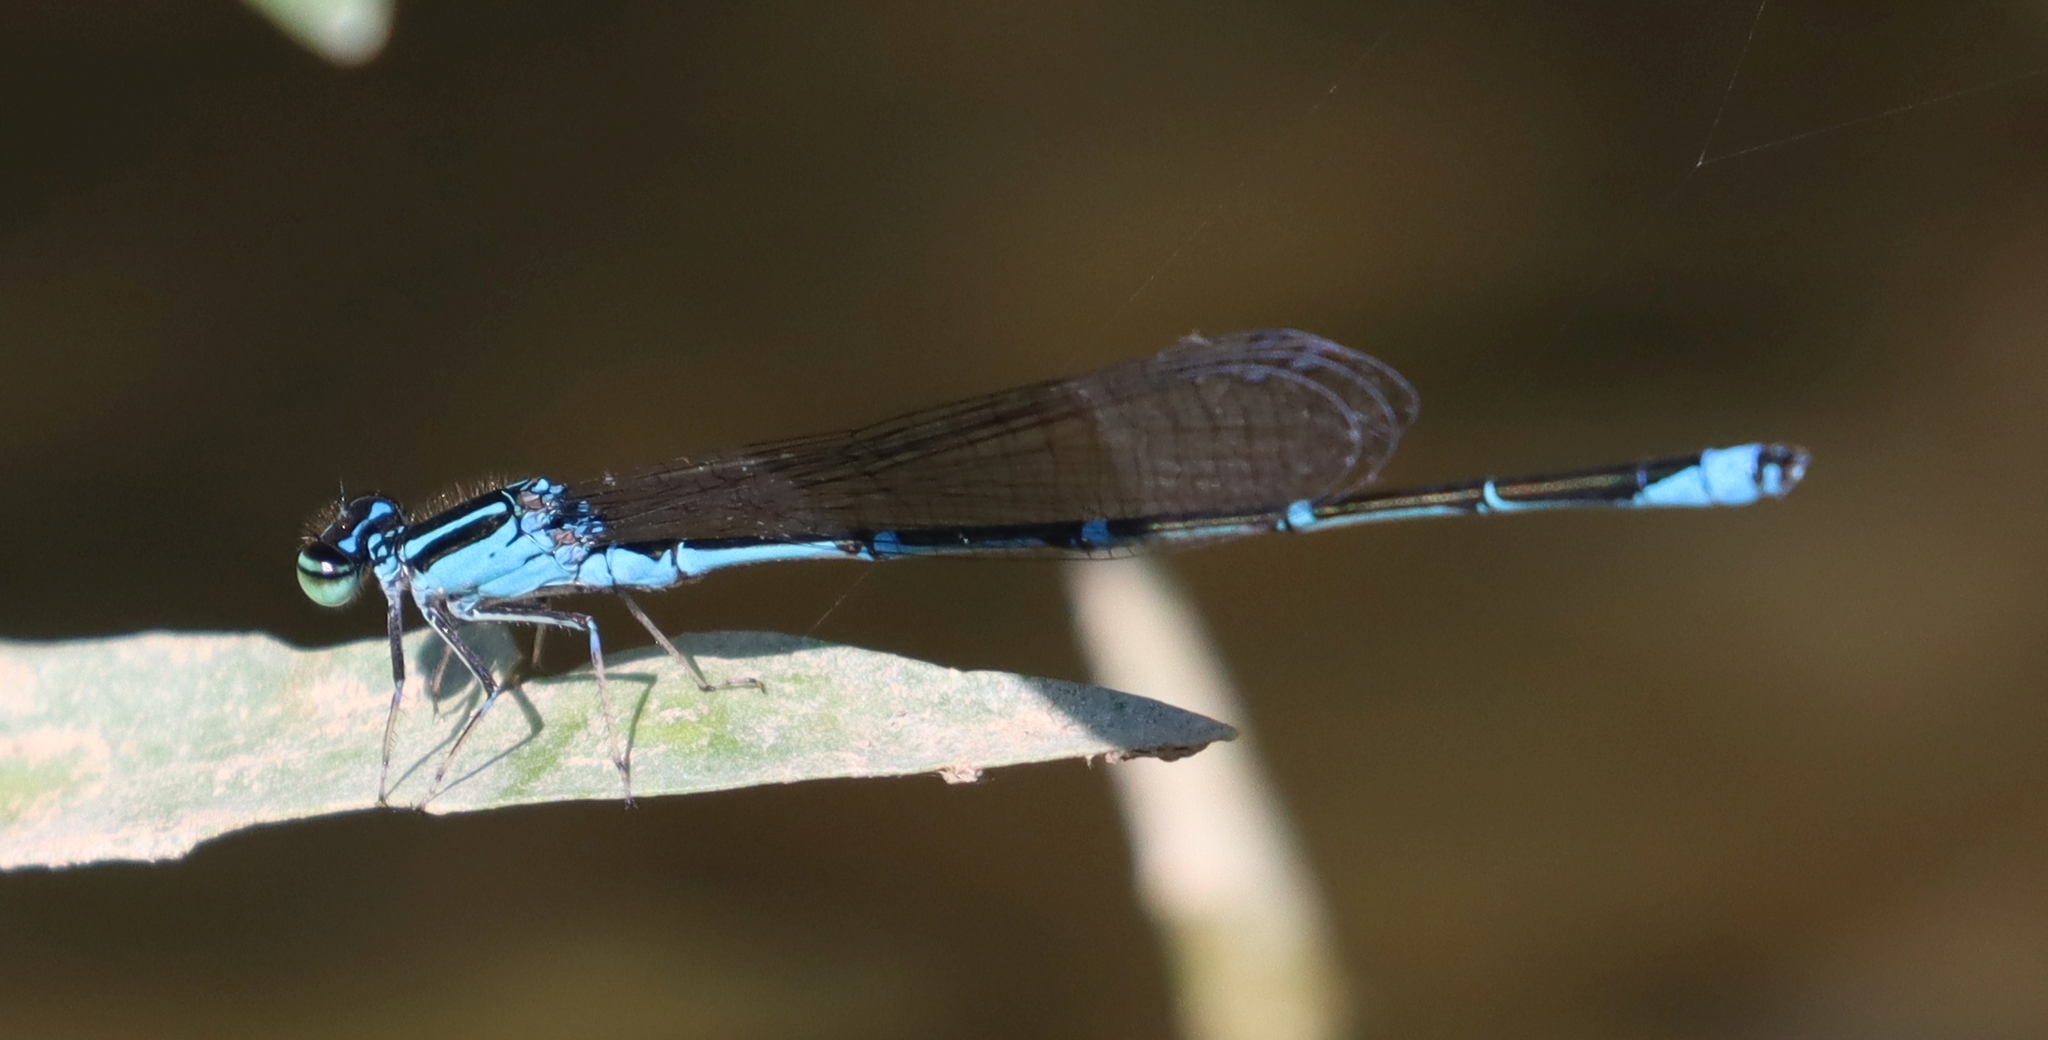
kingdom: Animalia
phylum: Arthropoda
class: Insecta
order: Odonata
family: Coenagrionidae
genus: Enallagma
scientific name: Enallagma exsulans
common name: Stream bluet
